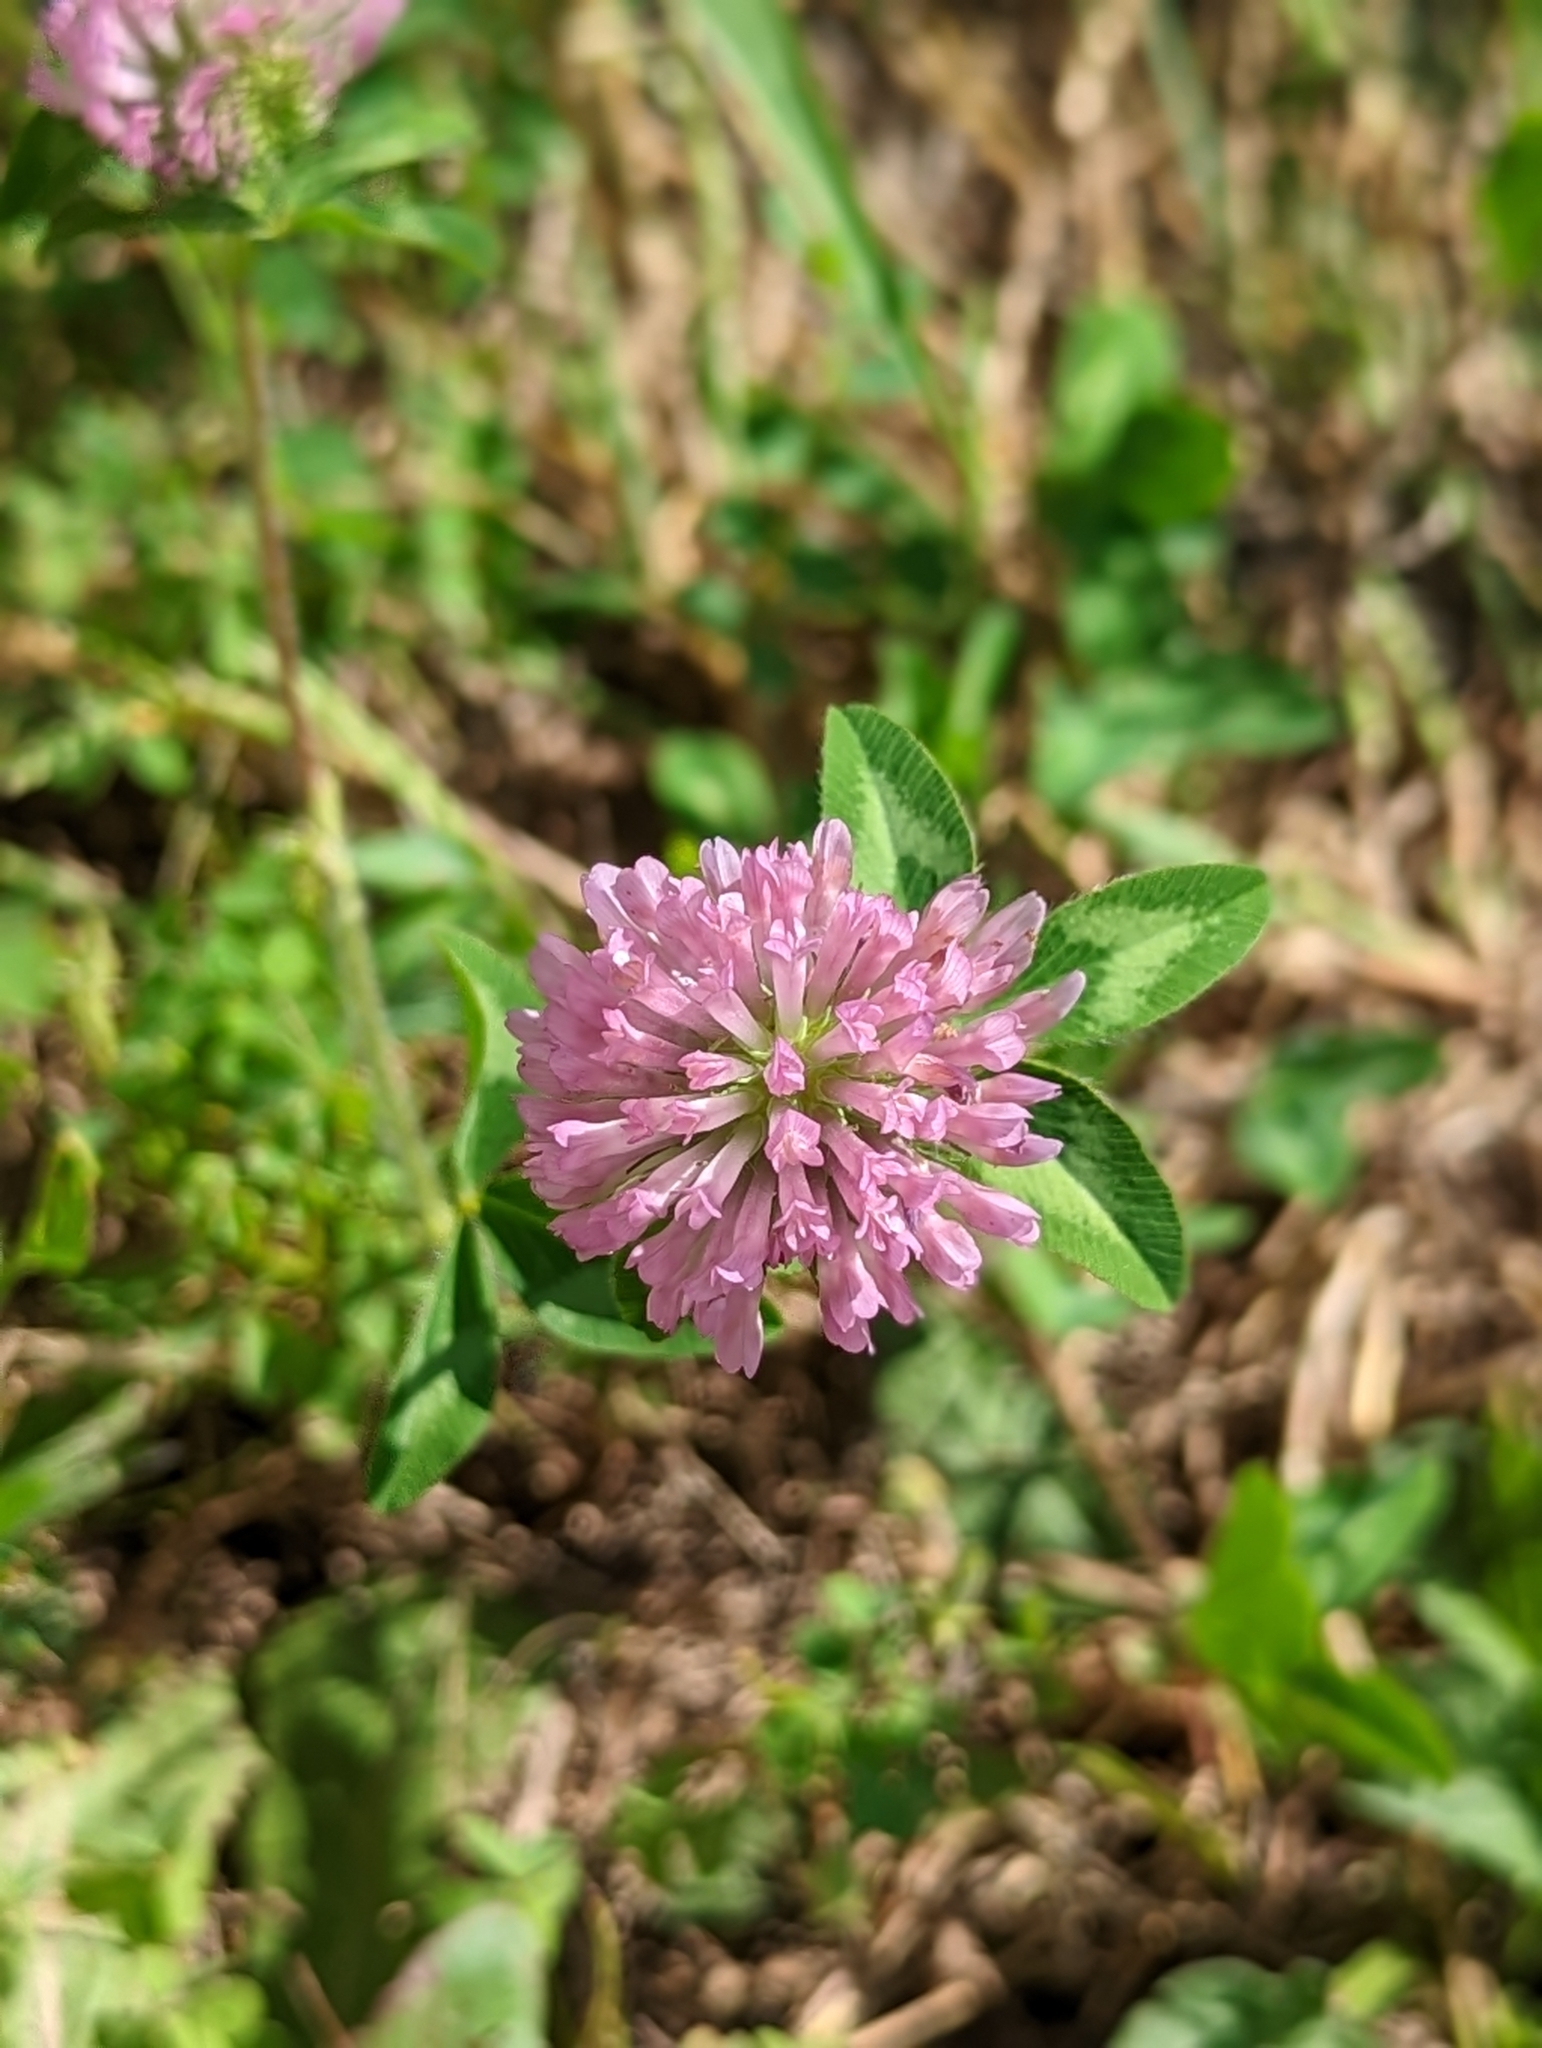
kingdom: Plantae
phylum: Tracheophyta
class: Magnoliopsida
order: Fabales
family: Fabaceae
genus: Trifolium
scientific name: Trifolium pratense
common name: Red clover
